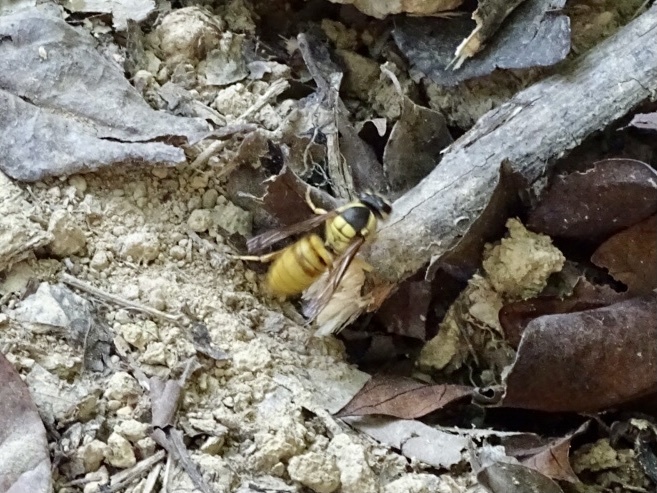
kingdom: Animalia
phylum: Arthropoda
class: Insecta
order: Hymenoptera
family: Vespidae
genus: Vespa
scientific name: Vespa bicolor
